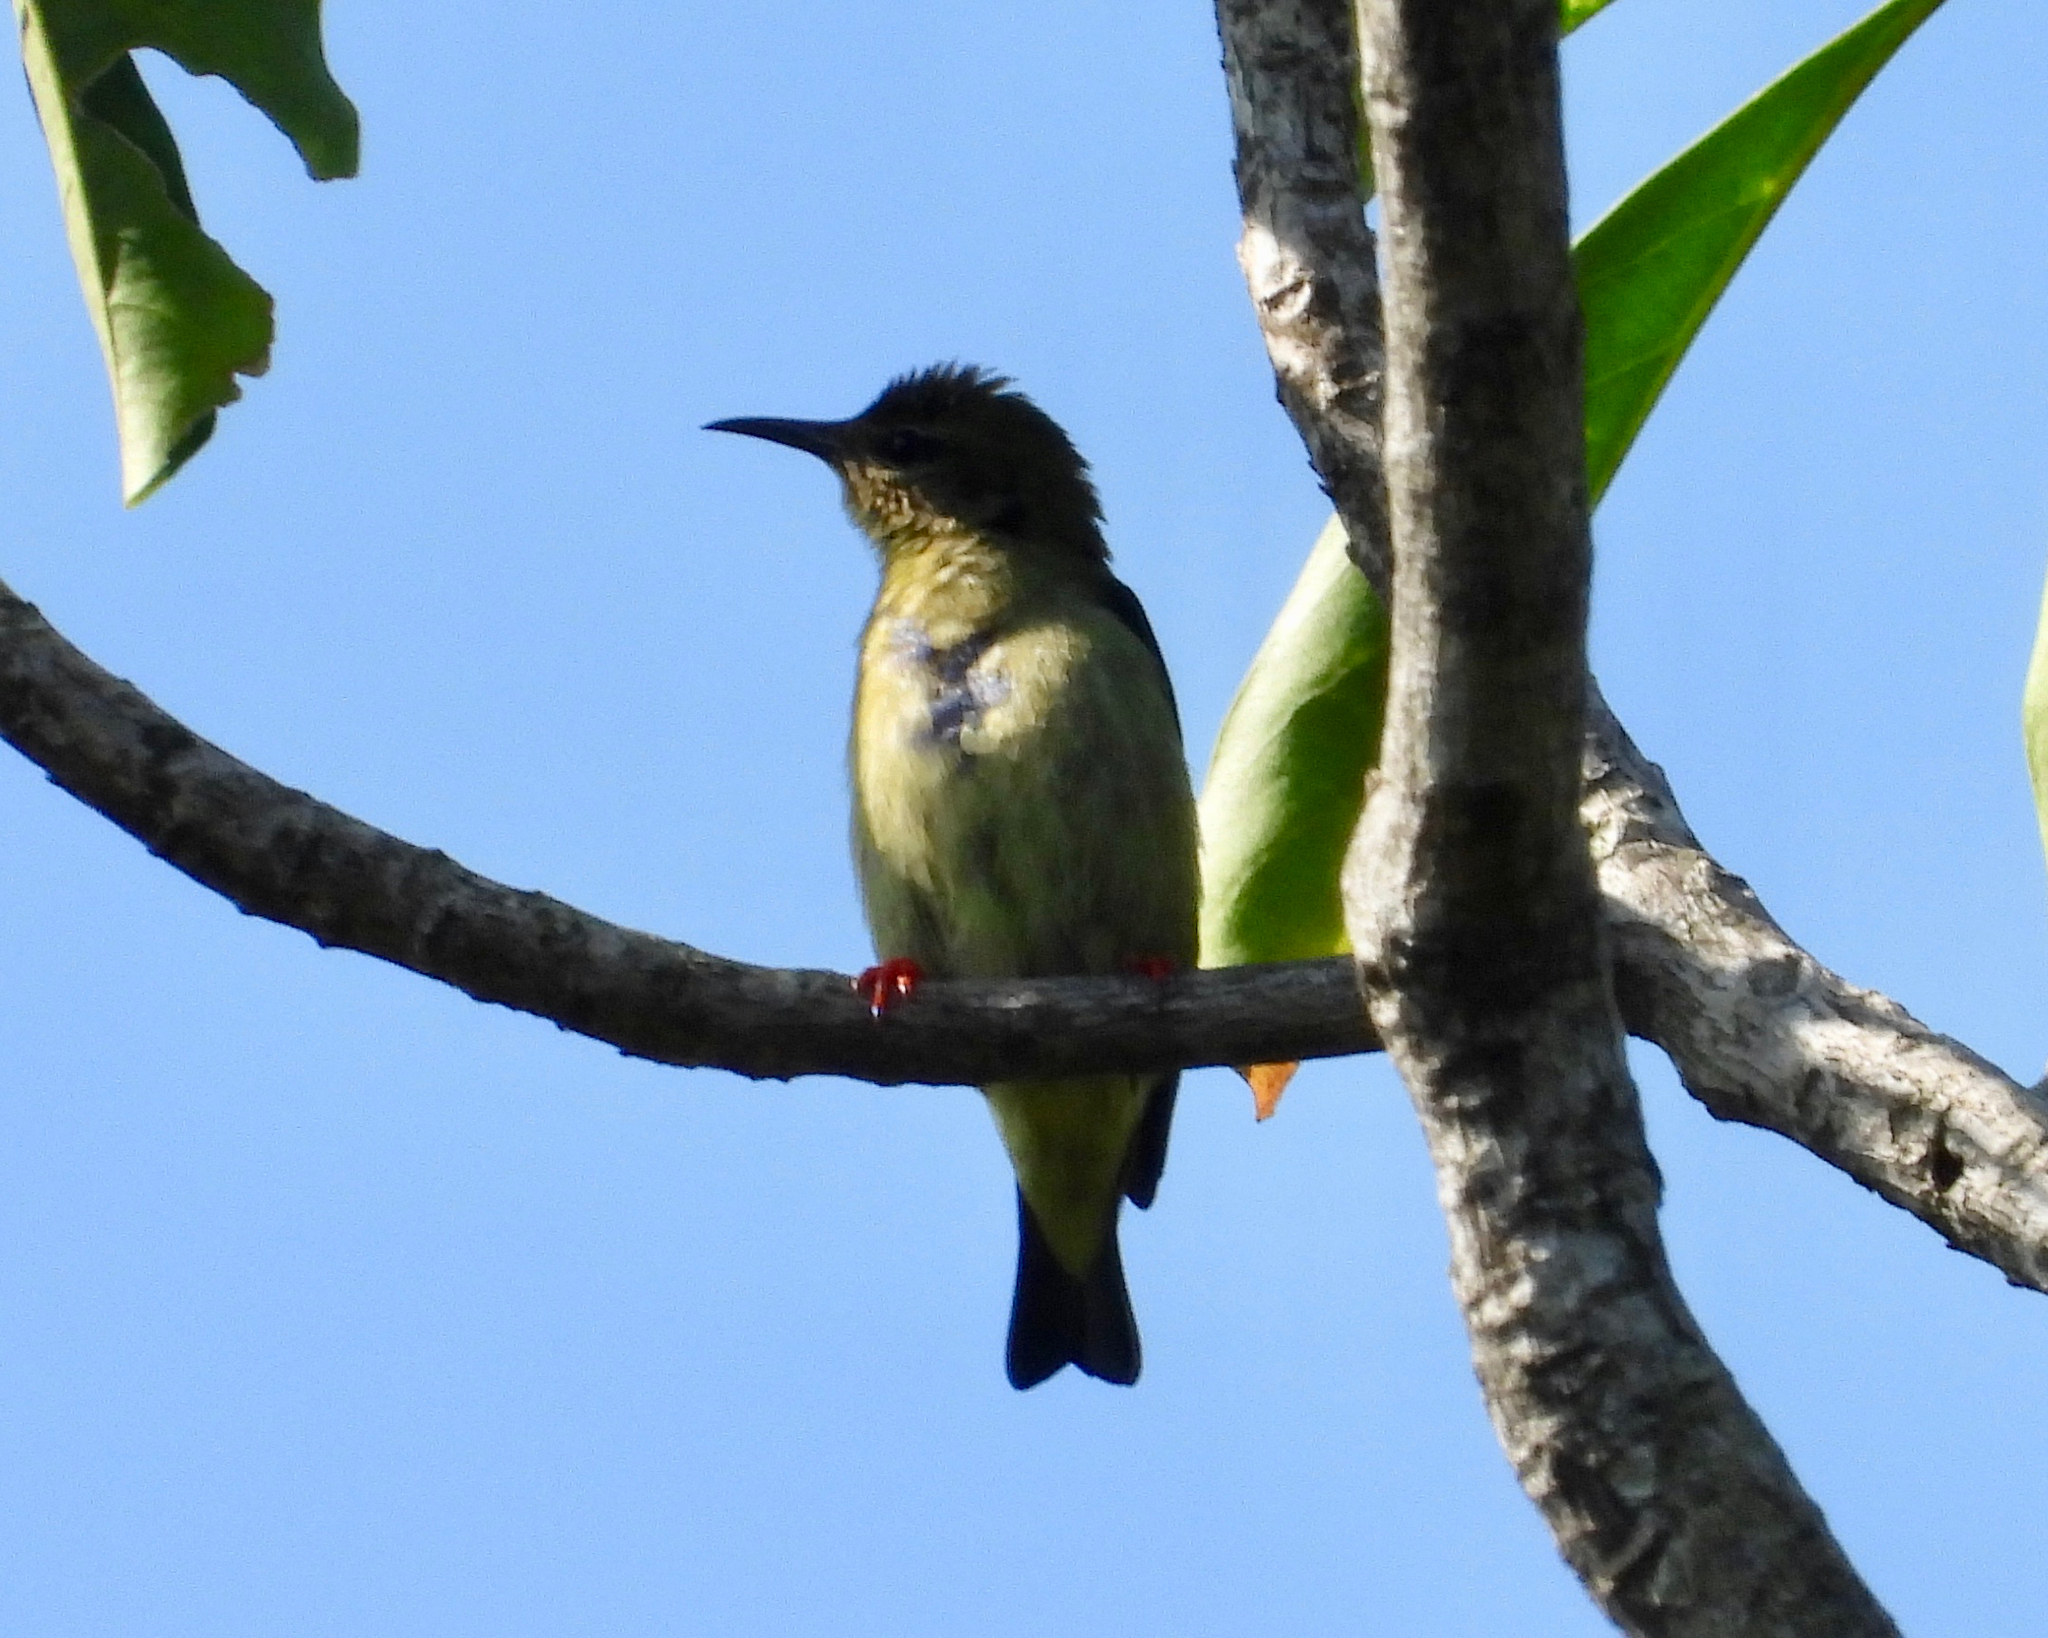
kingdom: Animalia
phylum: Chordata
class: Aves
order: Passeriformes
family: Thraupidae
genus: Cyanerpes
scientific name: Cyanerpes cyaneus
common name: Red-legged honeycreeper
